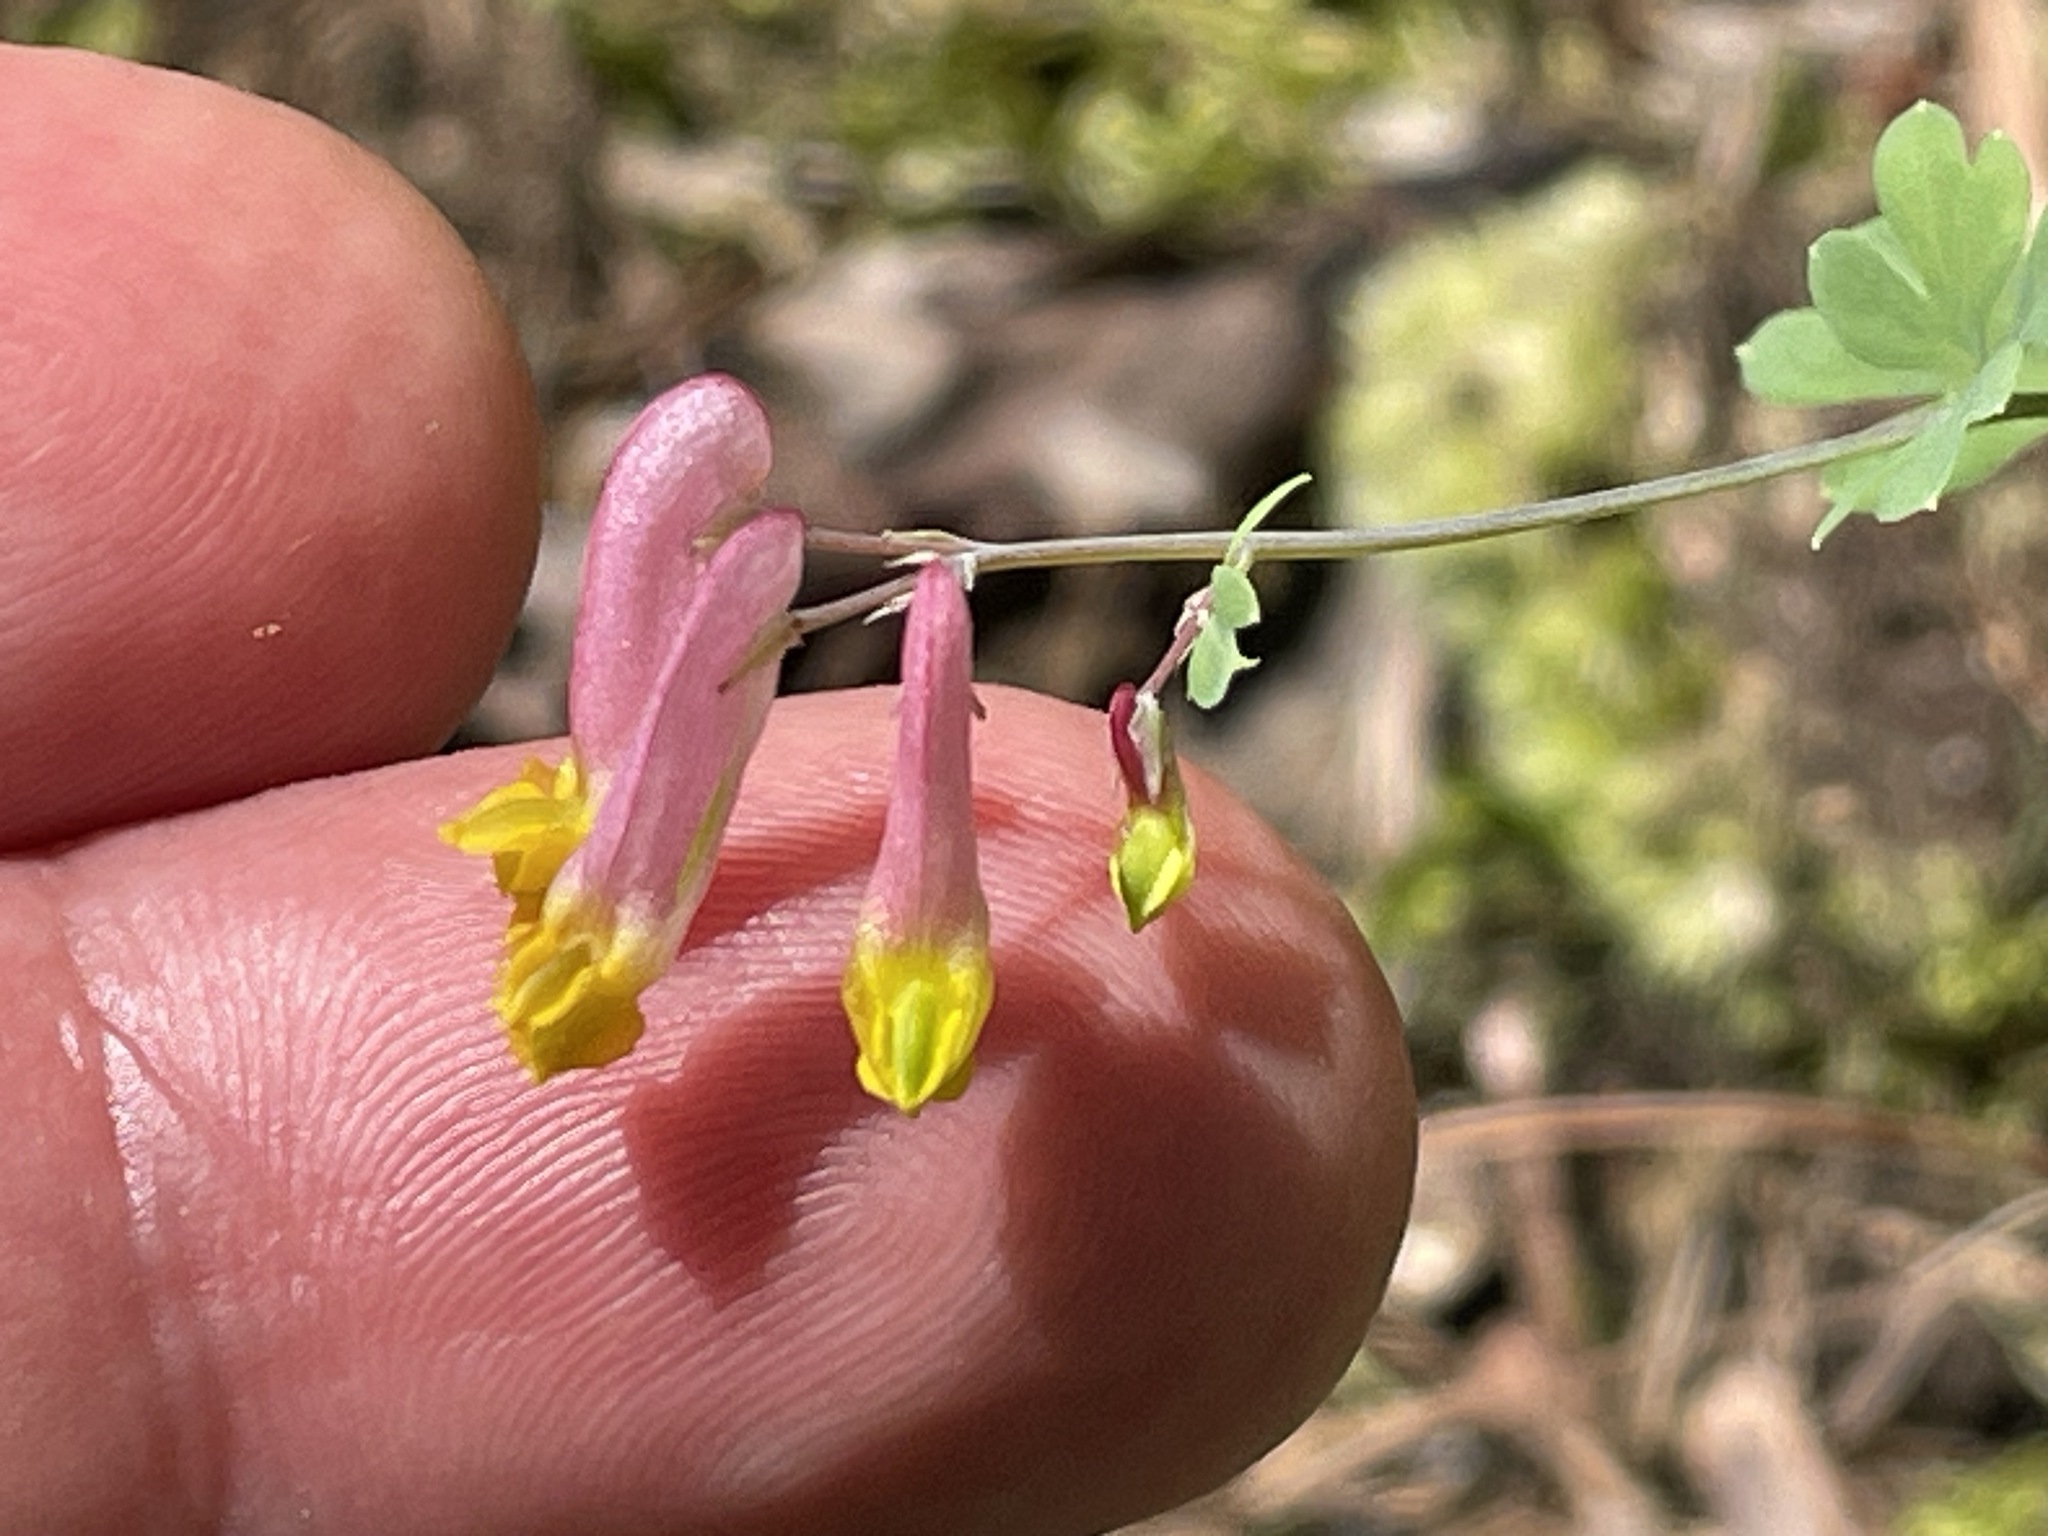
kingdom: Plantae
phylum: Tracheophyta
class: Magnoliopsida
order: Ranunculales
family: Papaveraceae
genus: Capnoides
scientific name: Capnoides sempervirens
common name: Rock harlequin
